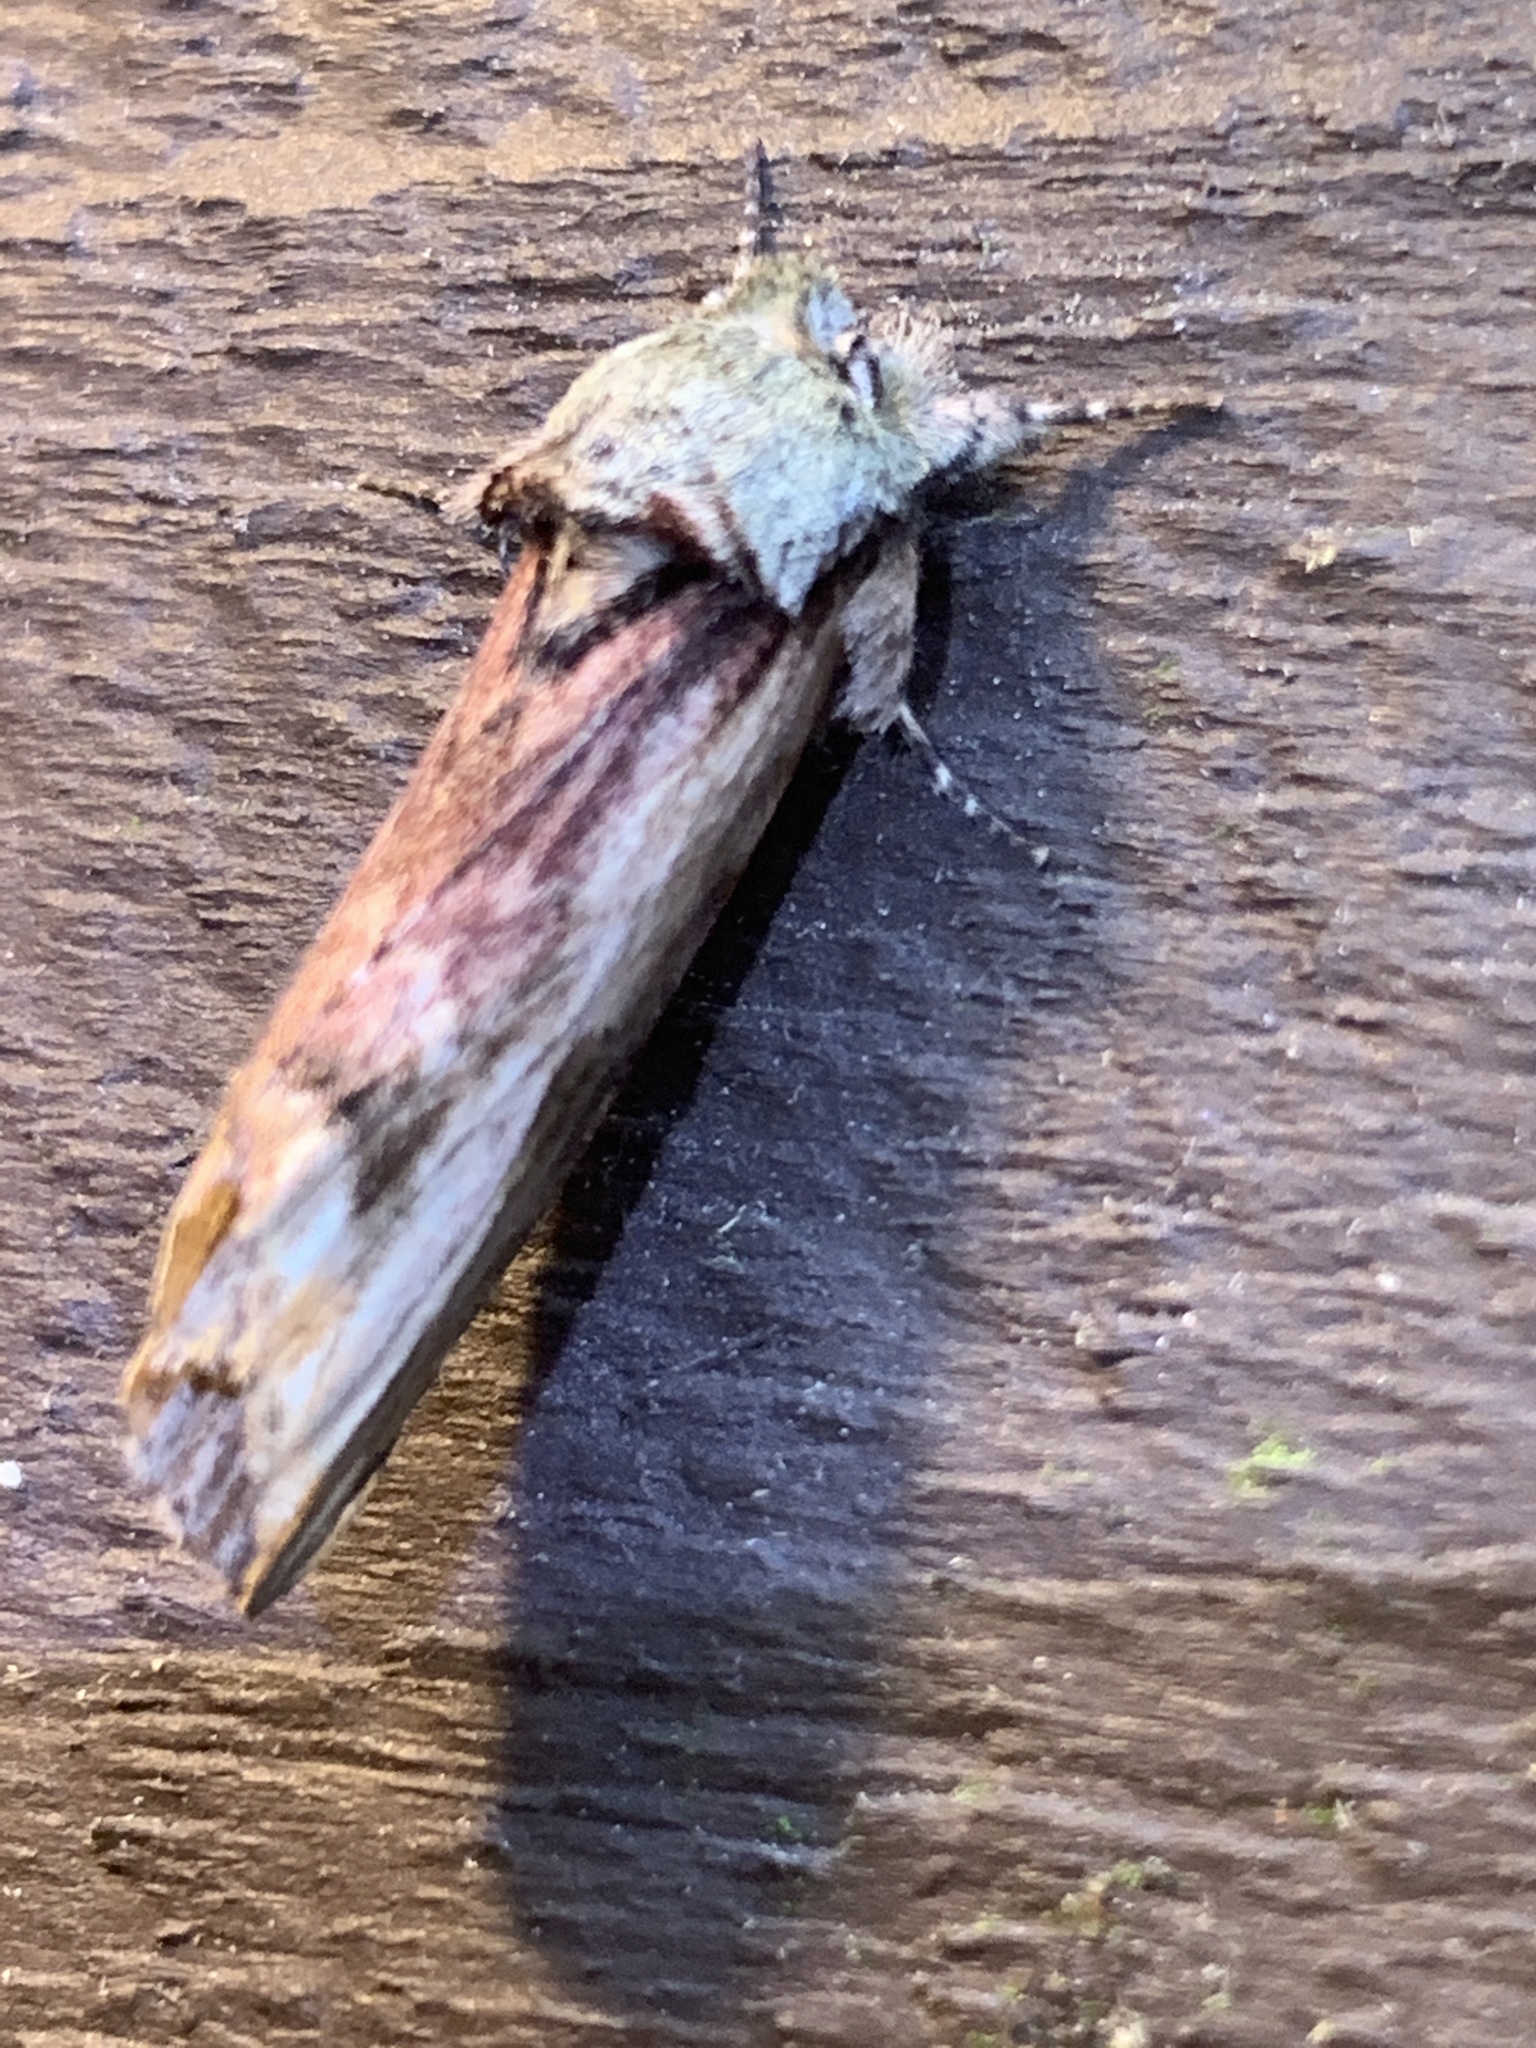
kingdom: Animalia
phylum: Arthropoda
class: Insecta
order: Lepidoptera
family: Notodontidae
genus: Schizura
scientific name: Schizura
